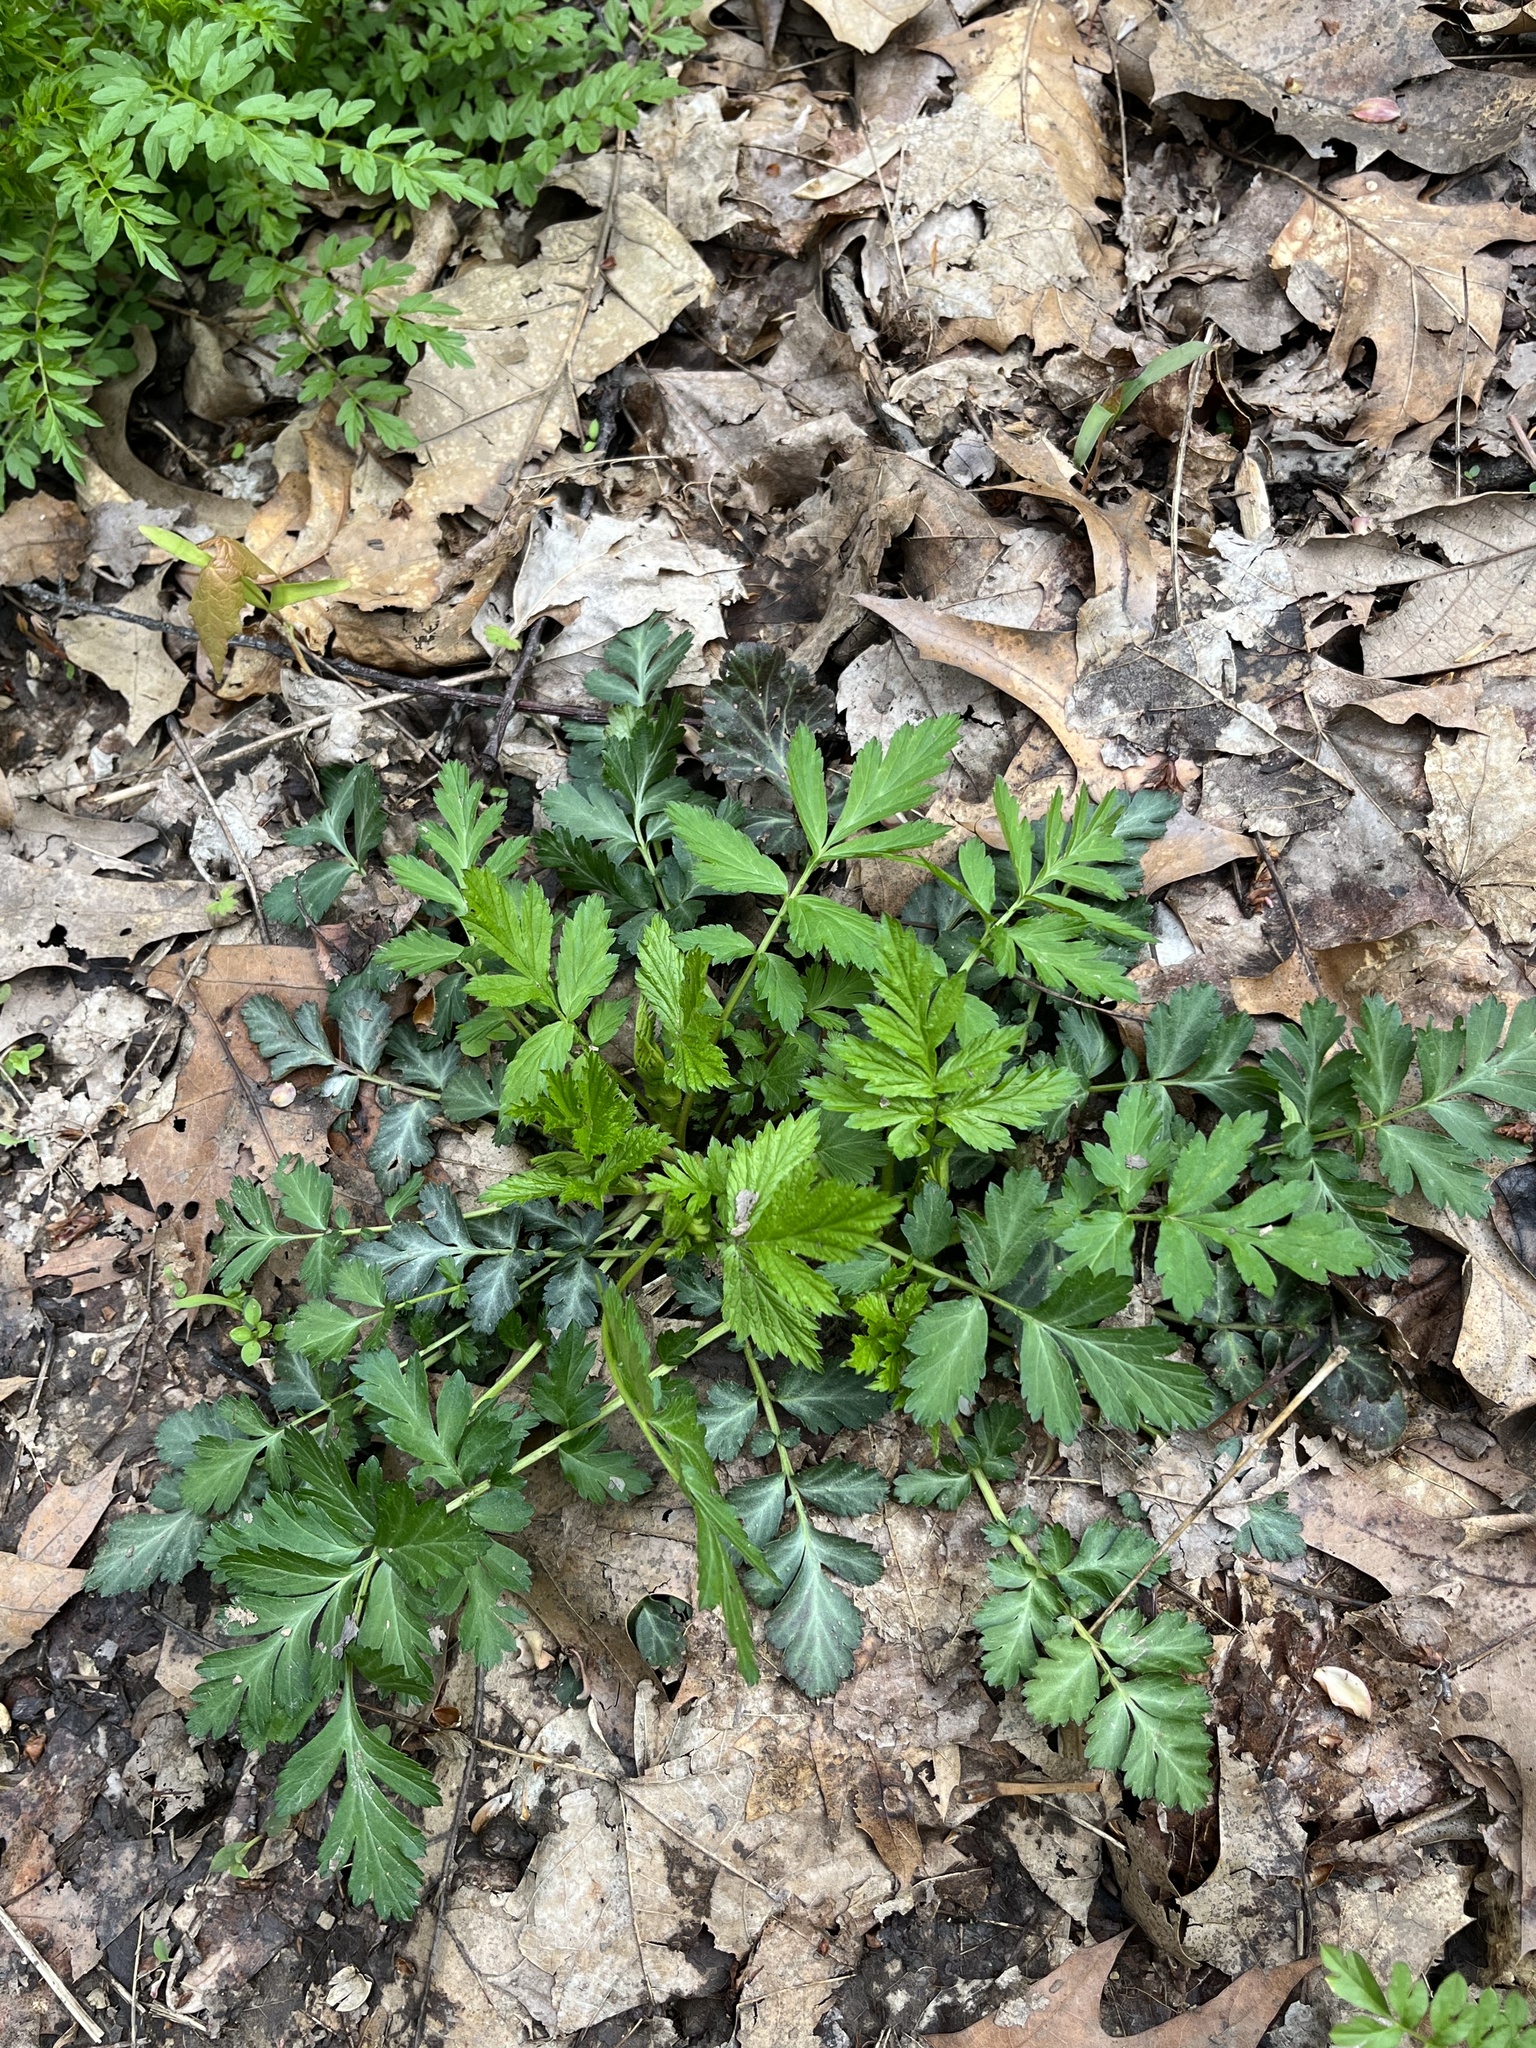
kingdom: Plantae
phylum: Tracheophyta
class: Magnoliopsida
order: Rosales
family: Rosaceae
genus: Geum
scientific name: Geum canadense
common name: White avens
